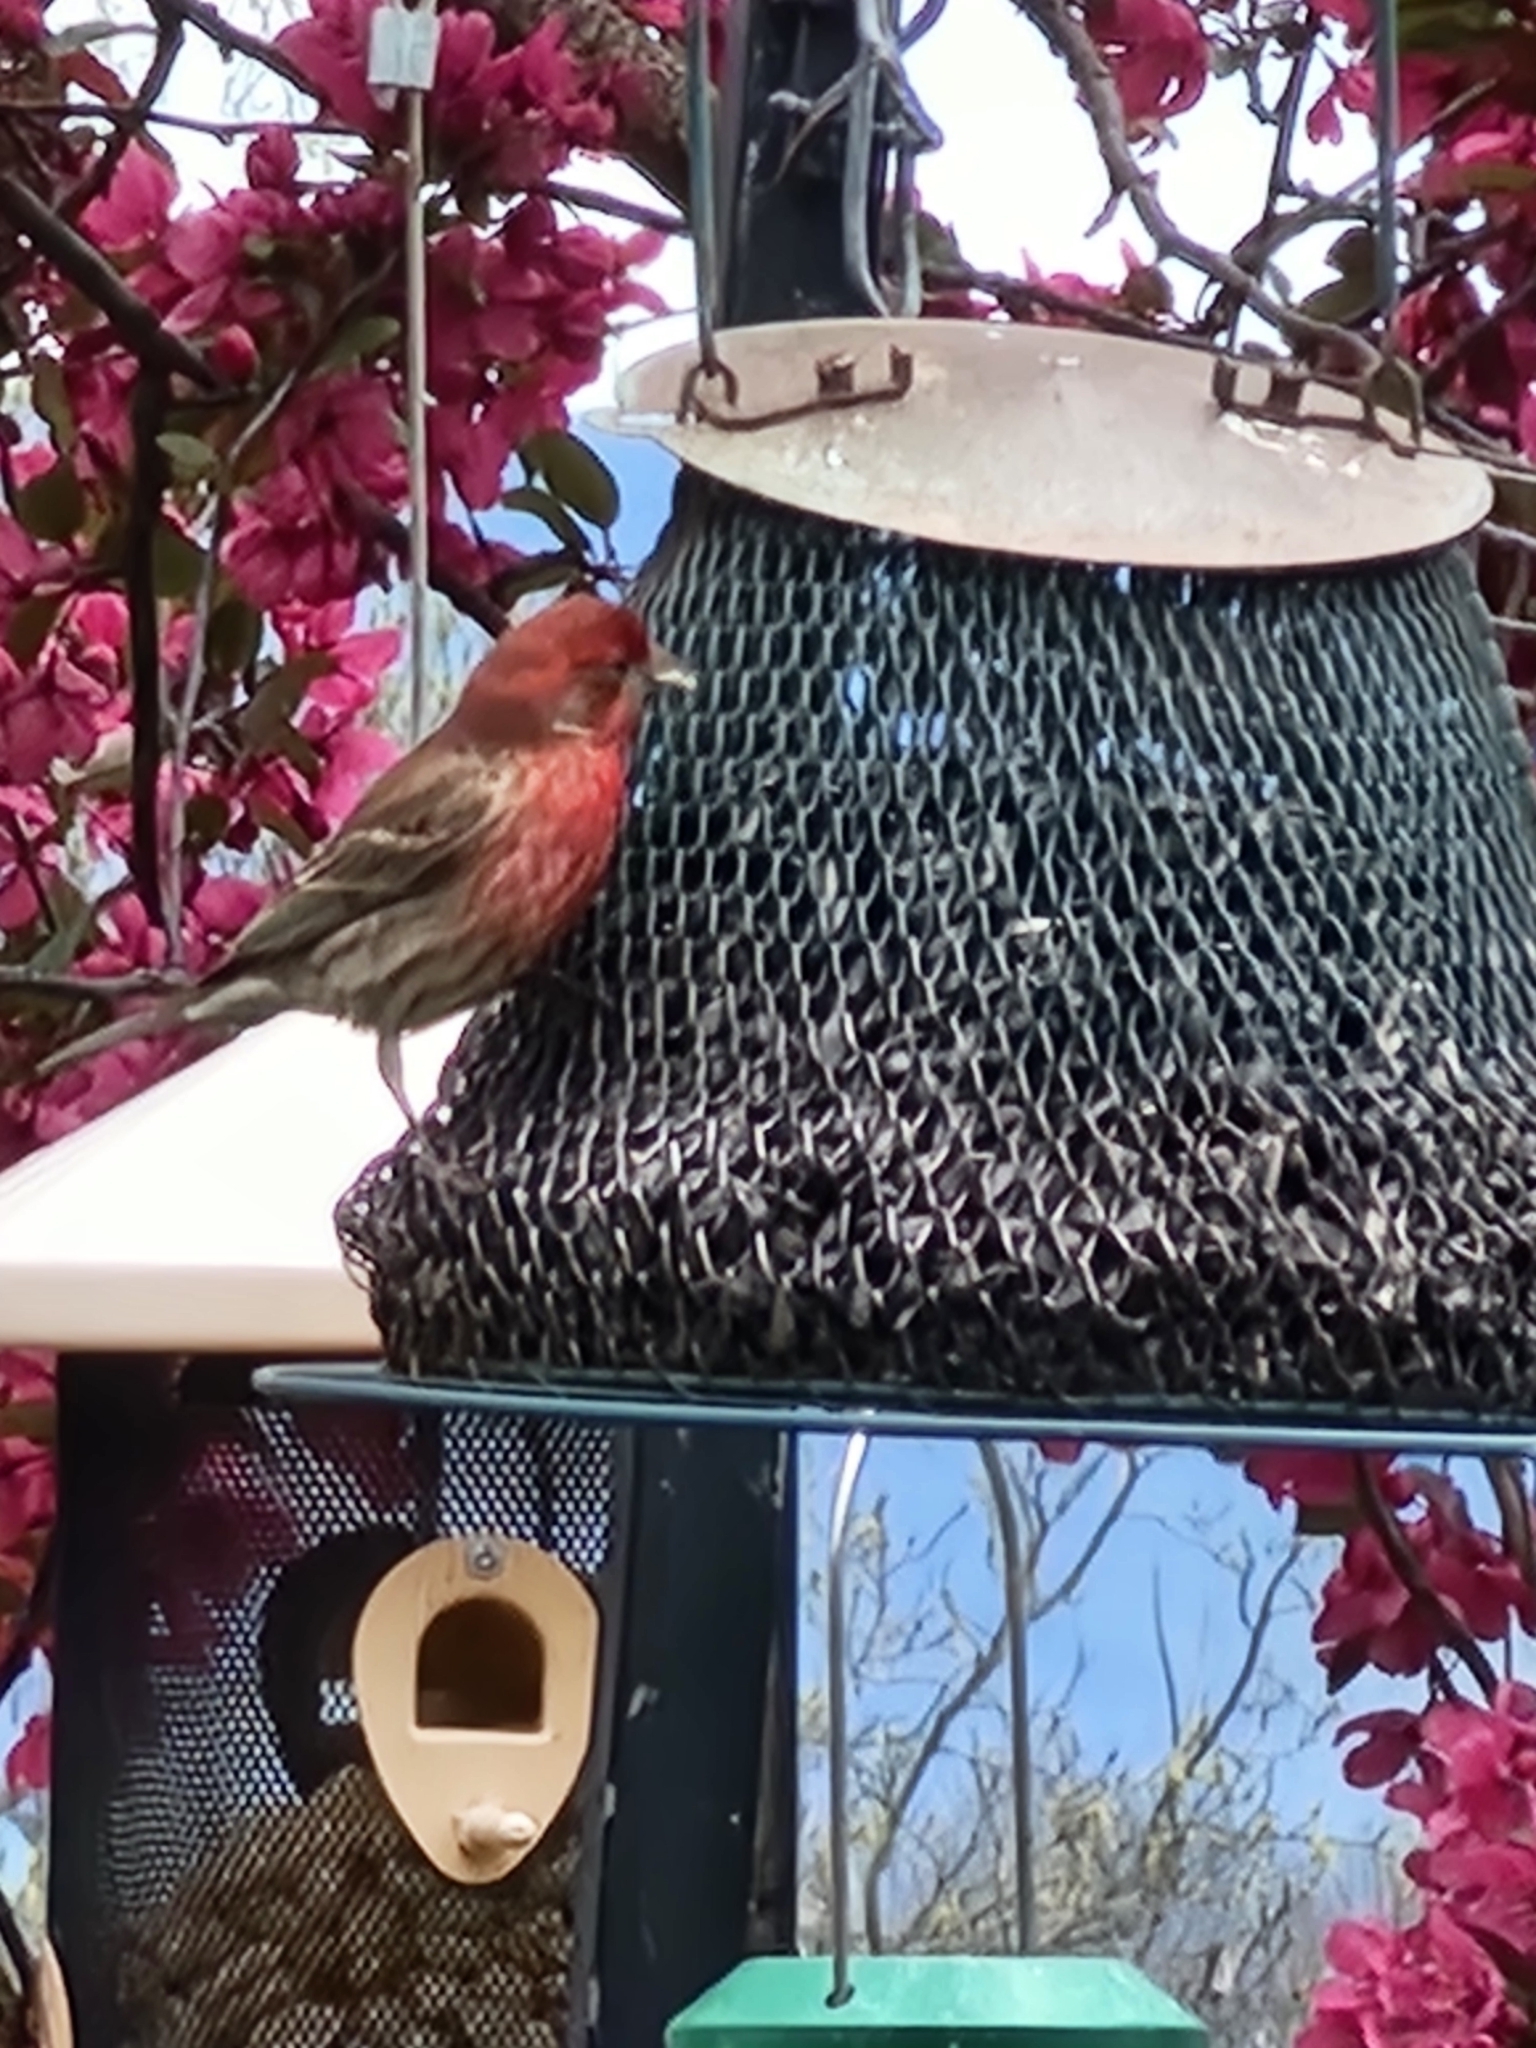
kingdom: Animalia
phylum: Chordata
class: Aves
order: Passeriformes
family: Fringillidae
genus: Haemorhous
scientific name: Haemorhous mexicanus
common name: House finch
